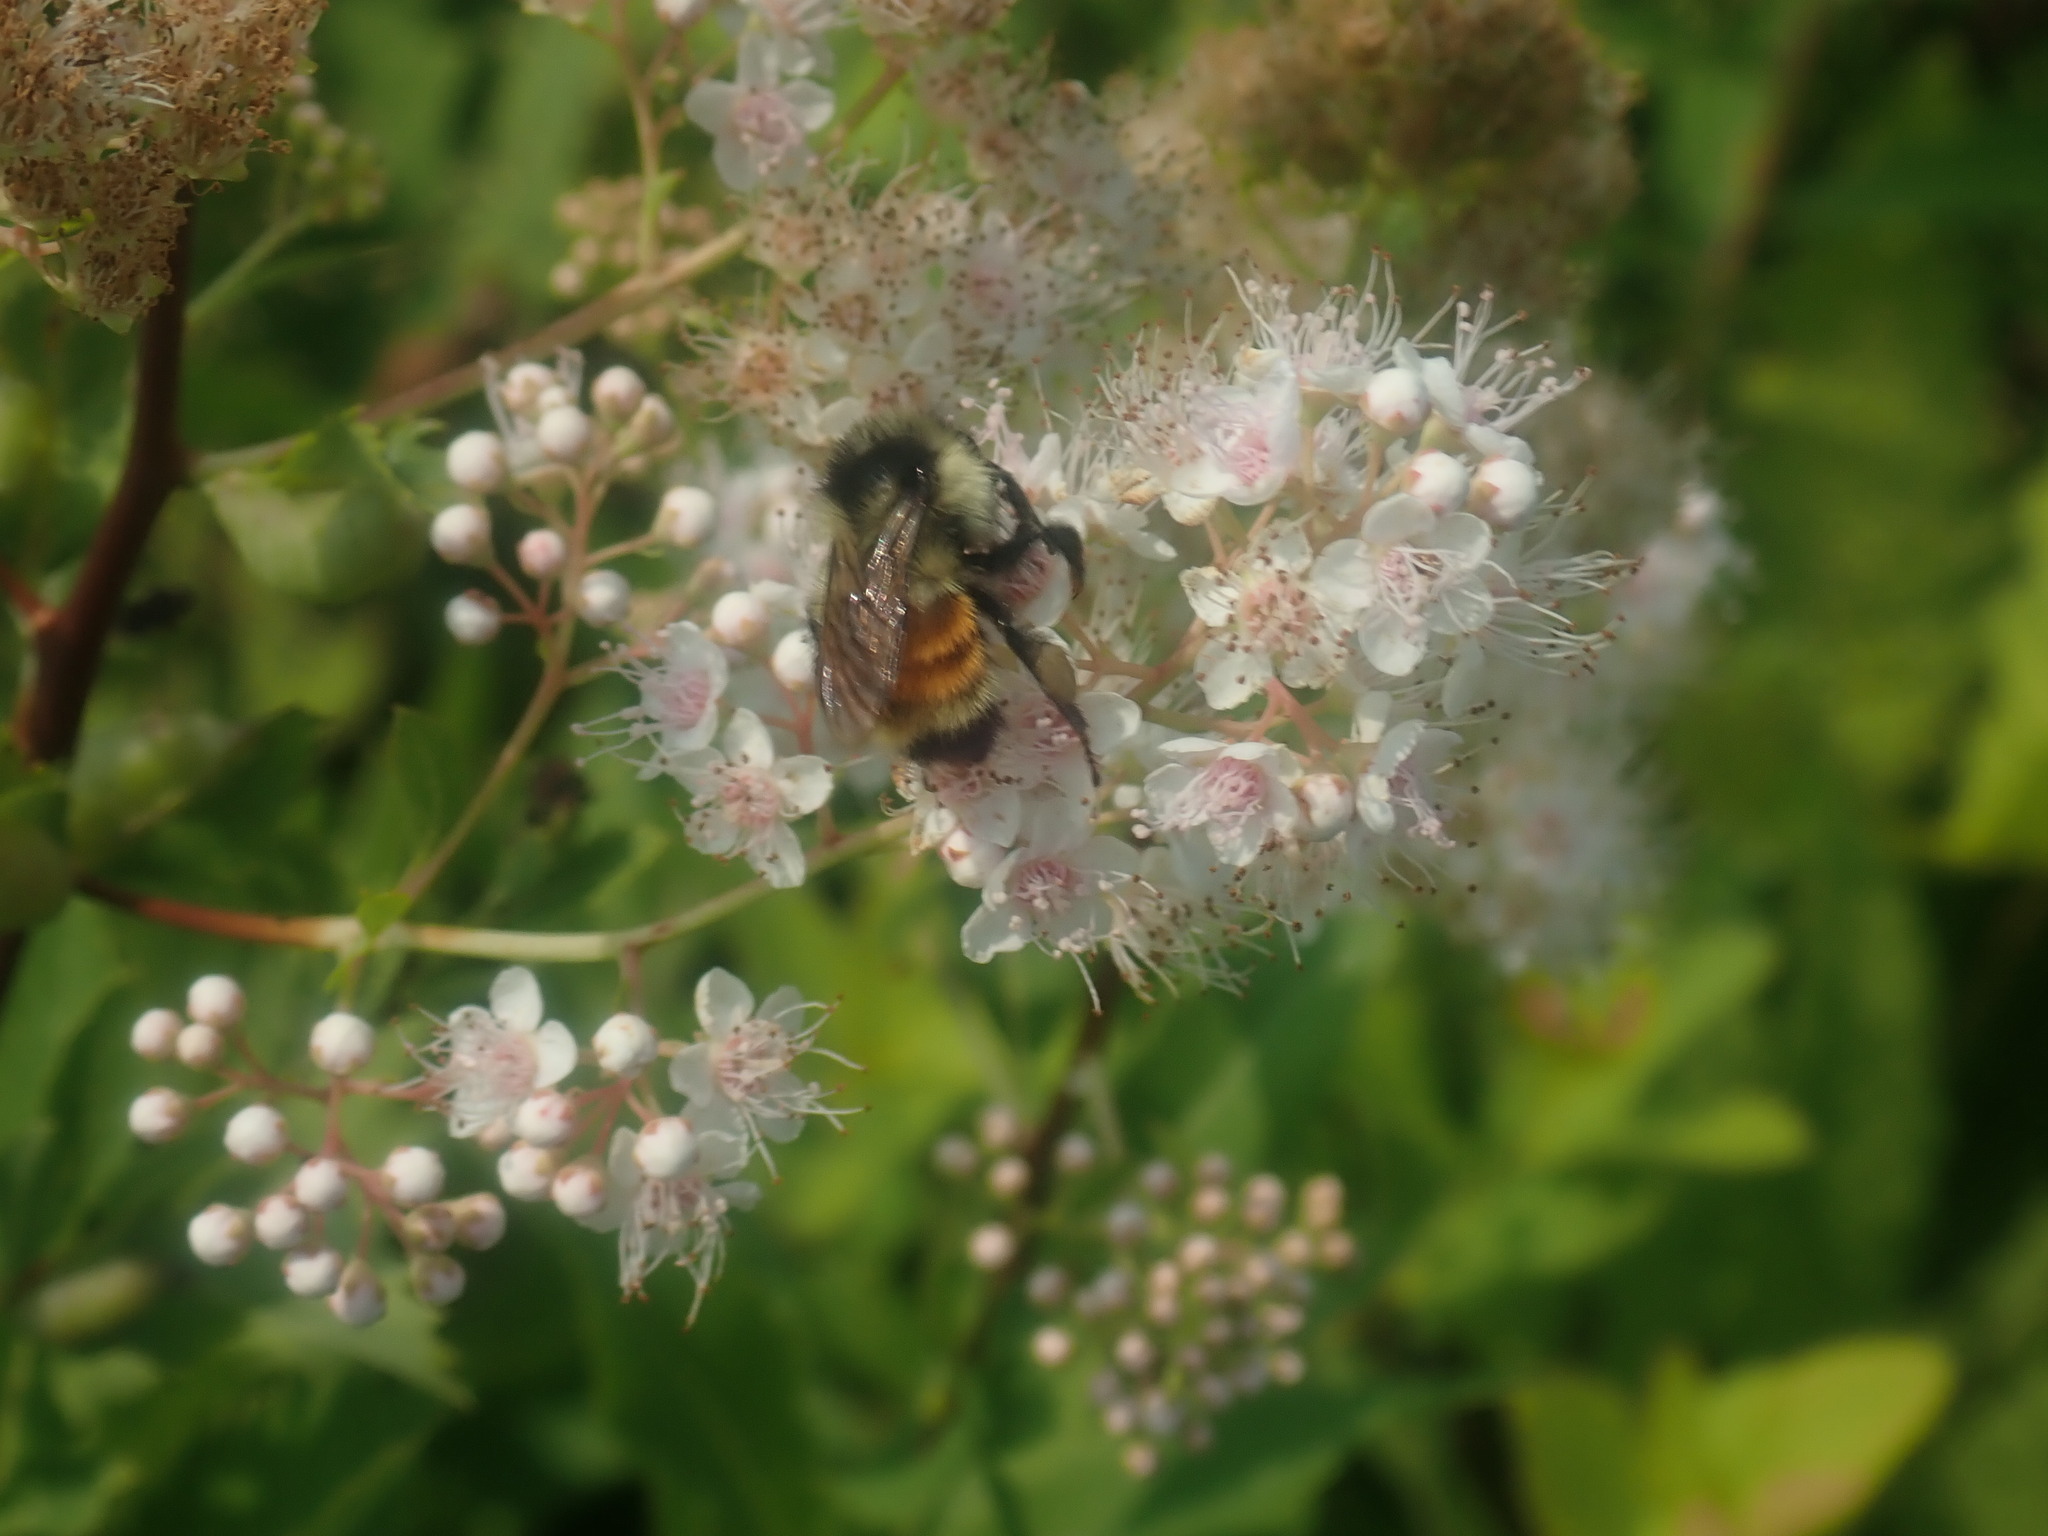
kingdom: Animalia
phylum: Arthropoda
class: Insecta
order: Hymenoptera
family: Apidae
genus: Bombus
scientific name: Bombus ternarius
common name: Tri-colored bumble bee
